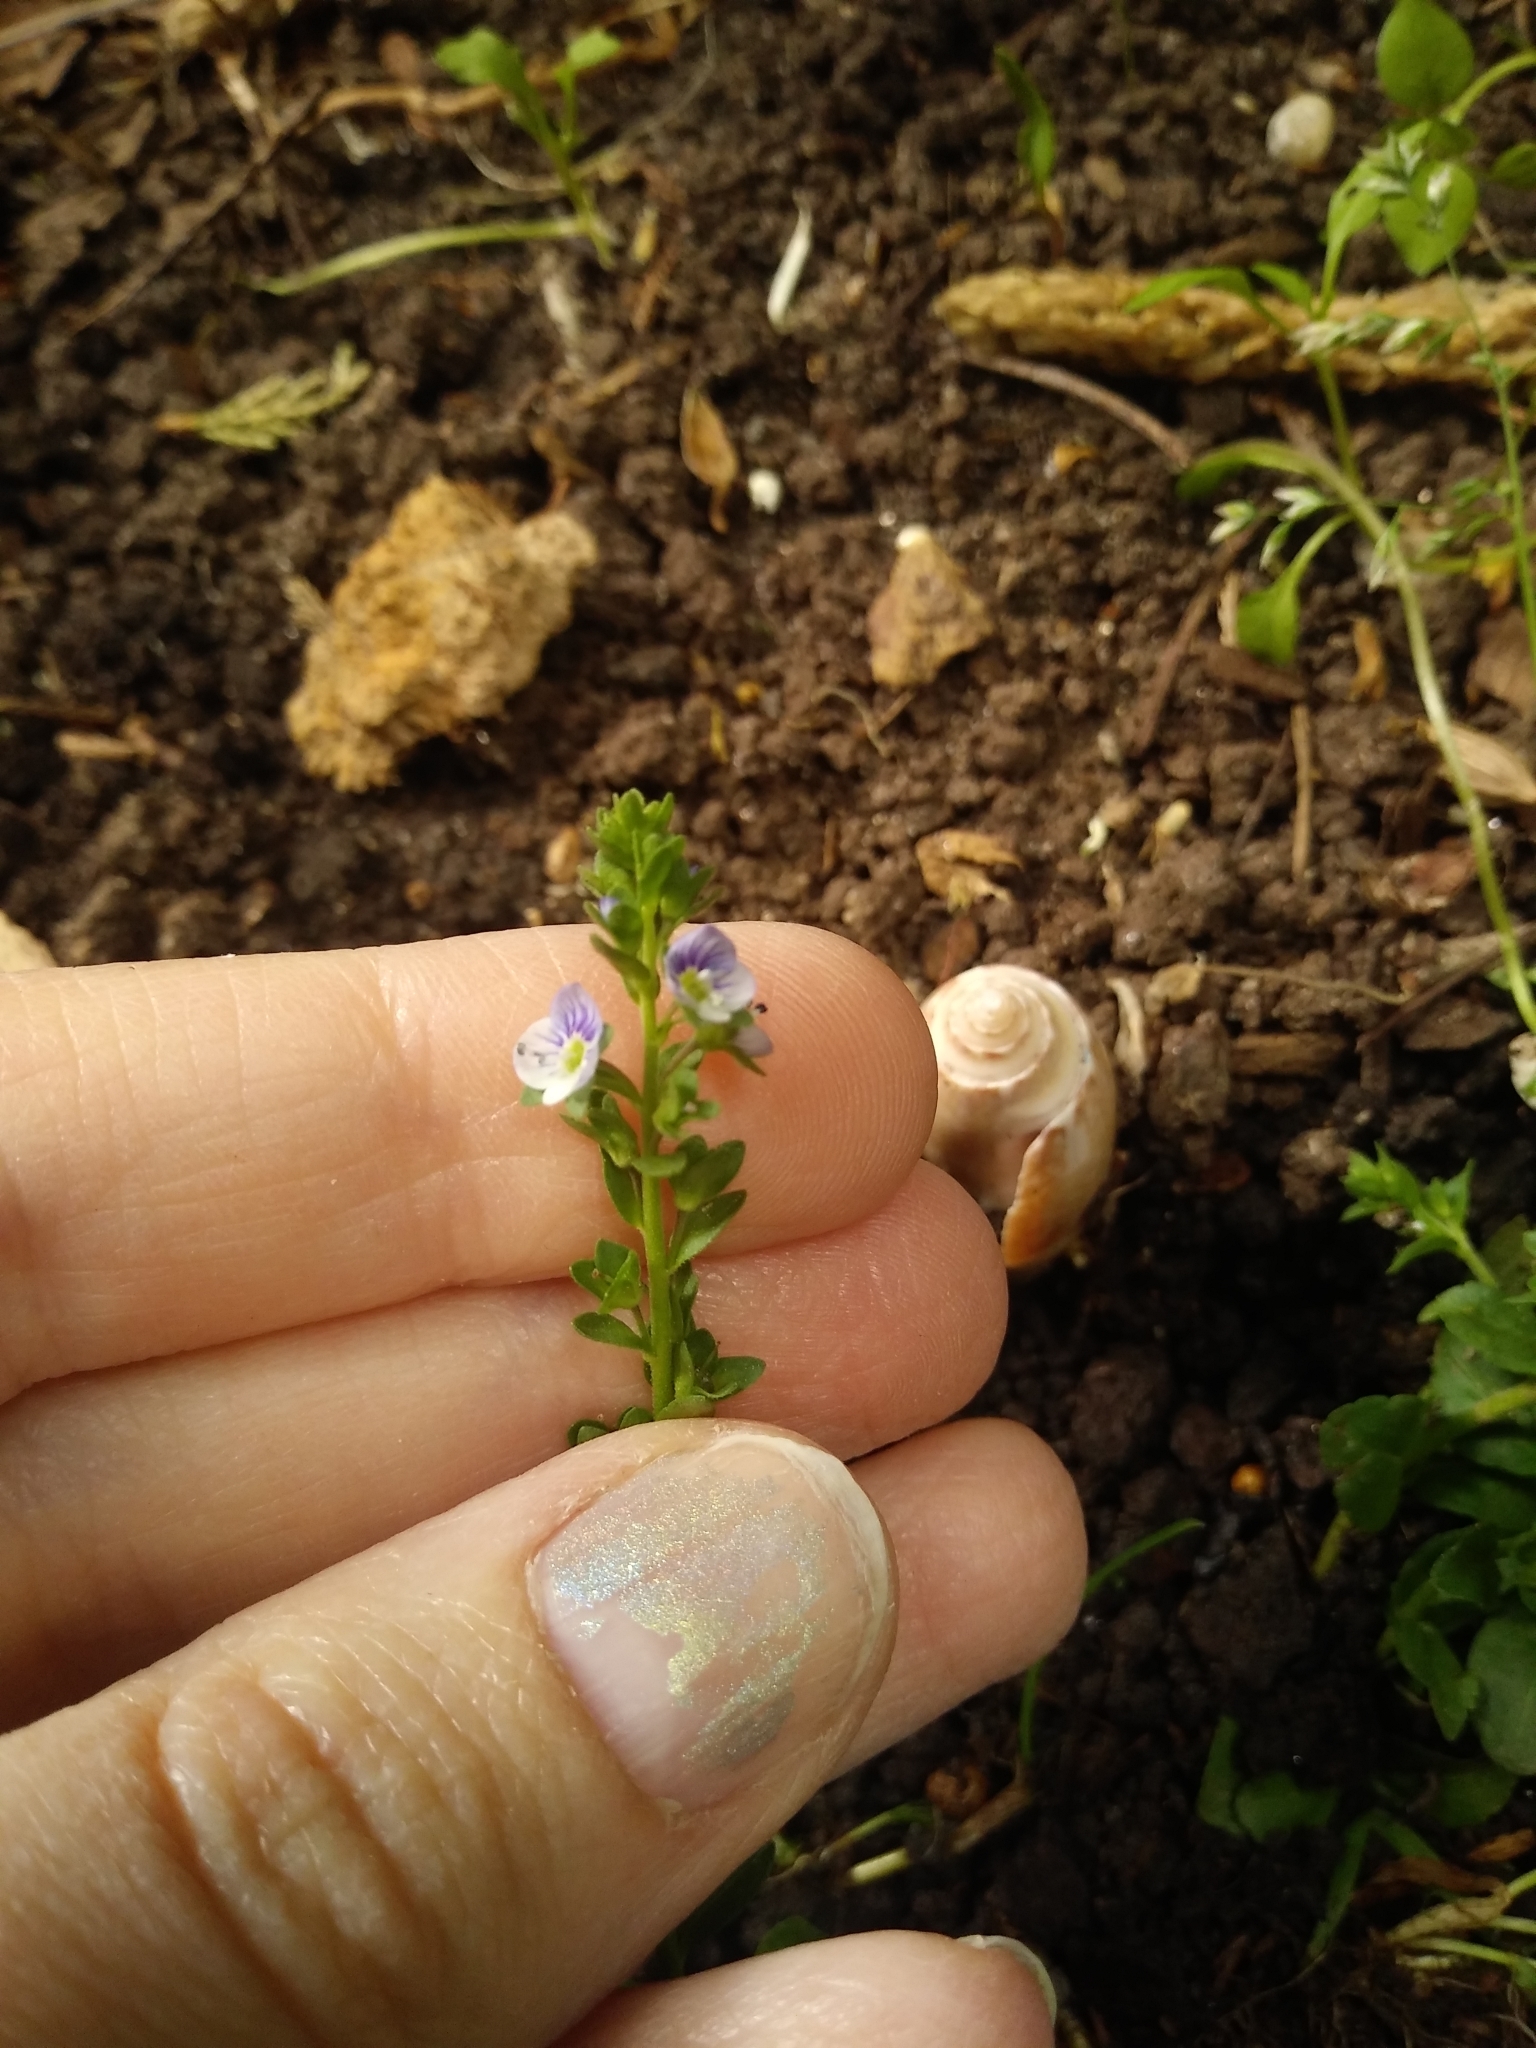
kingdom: Plantae
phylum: Tracheophyta
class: Magnoliopsida
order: Lamiales
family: Plantaginaceae
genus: Veronica
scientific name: Veronica serpyllifolia
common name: Thyme-leaved speedwell
